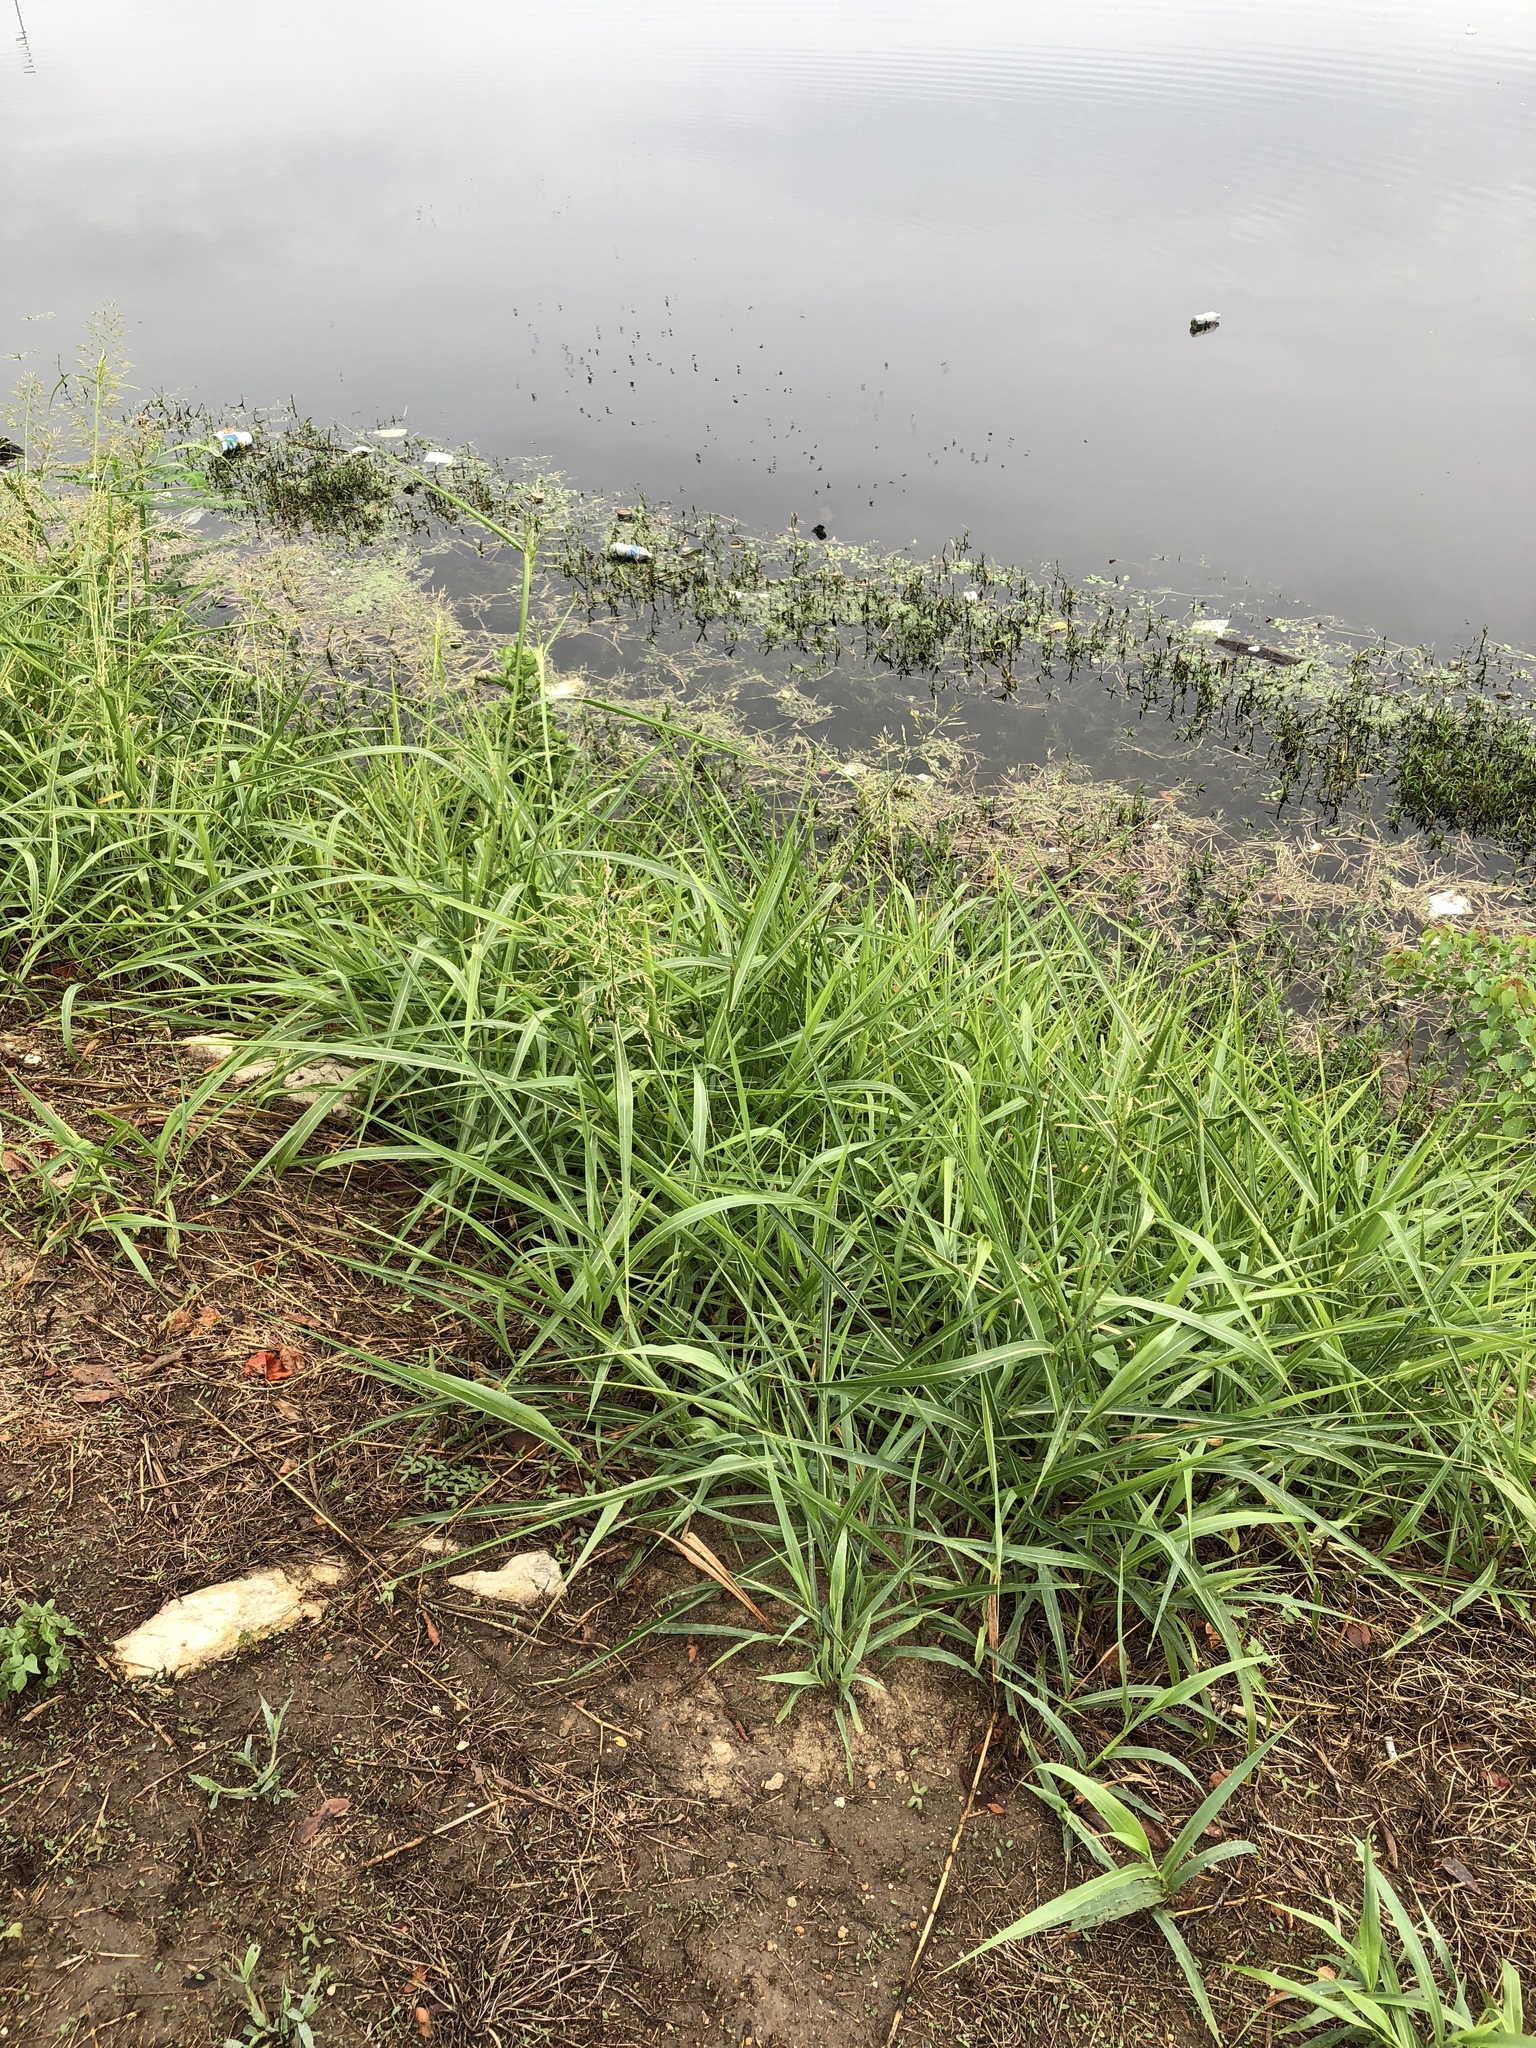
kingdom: Plantae
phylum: Tracheophyta
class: Liliopsida
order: Poales
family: Poaceae
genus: Sorghum
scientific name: Sorghum halepense
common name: Johnson-grass
